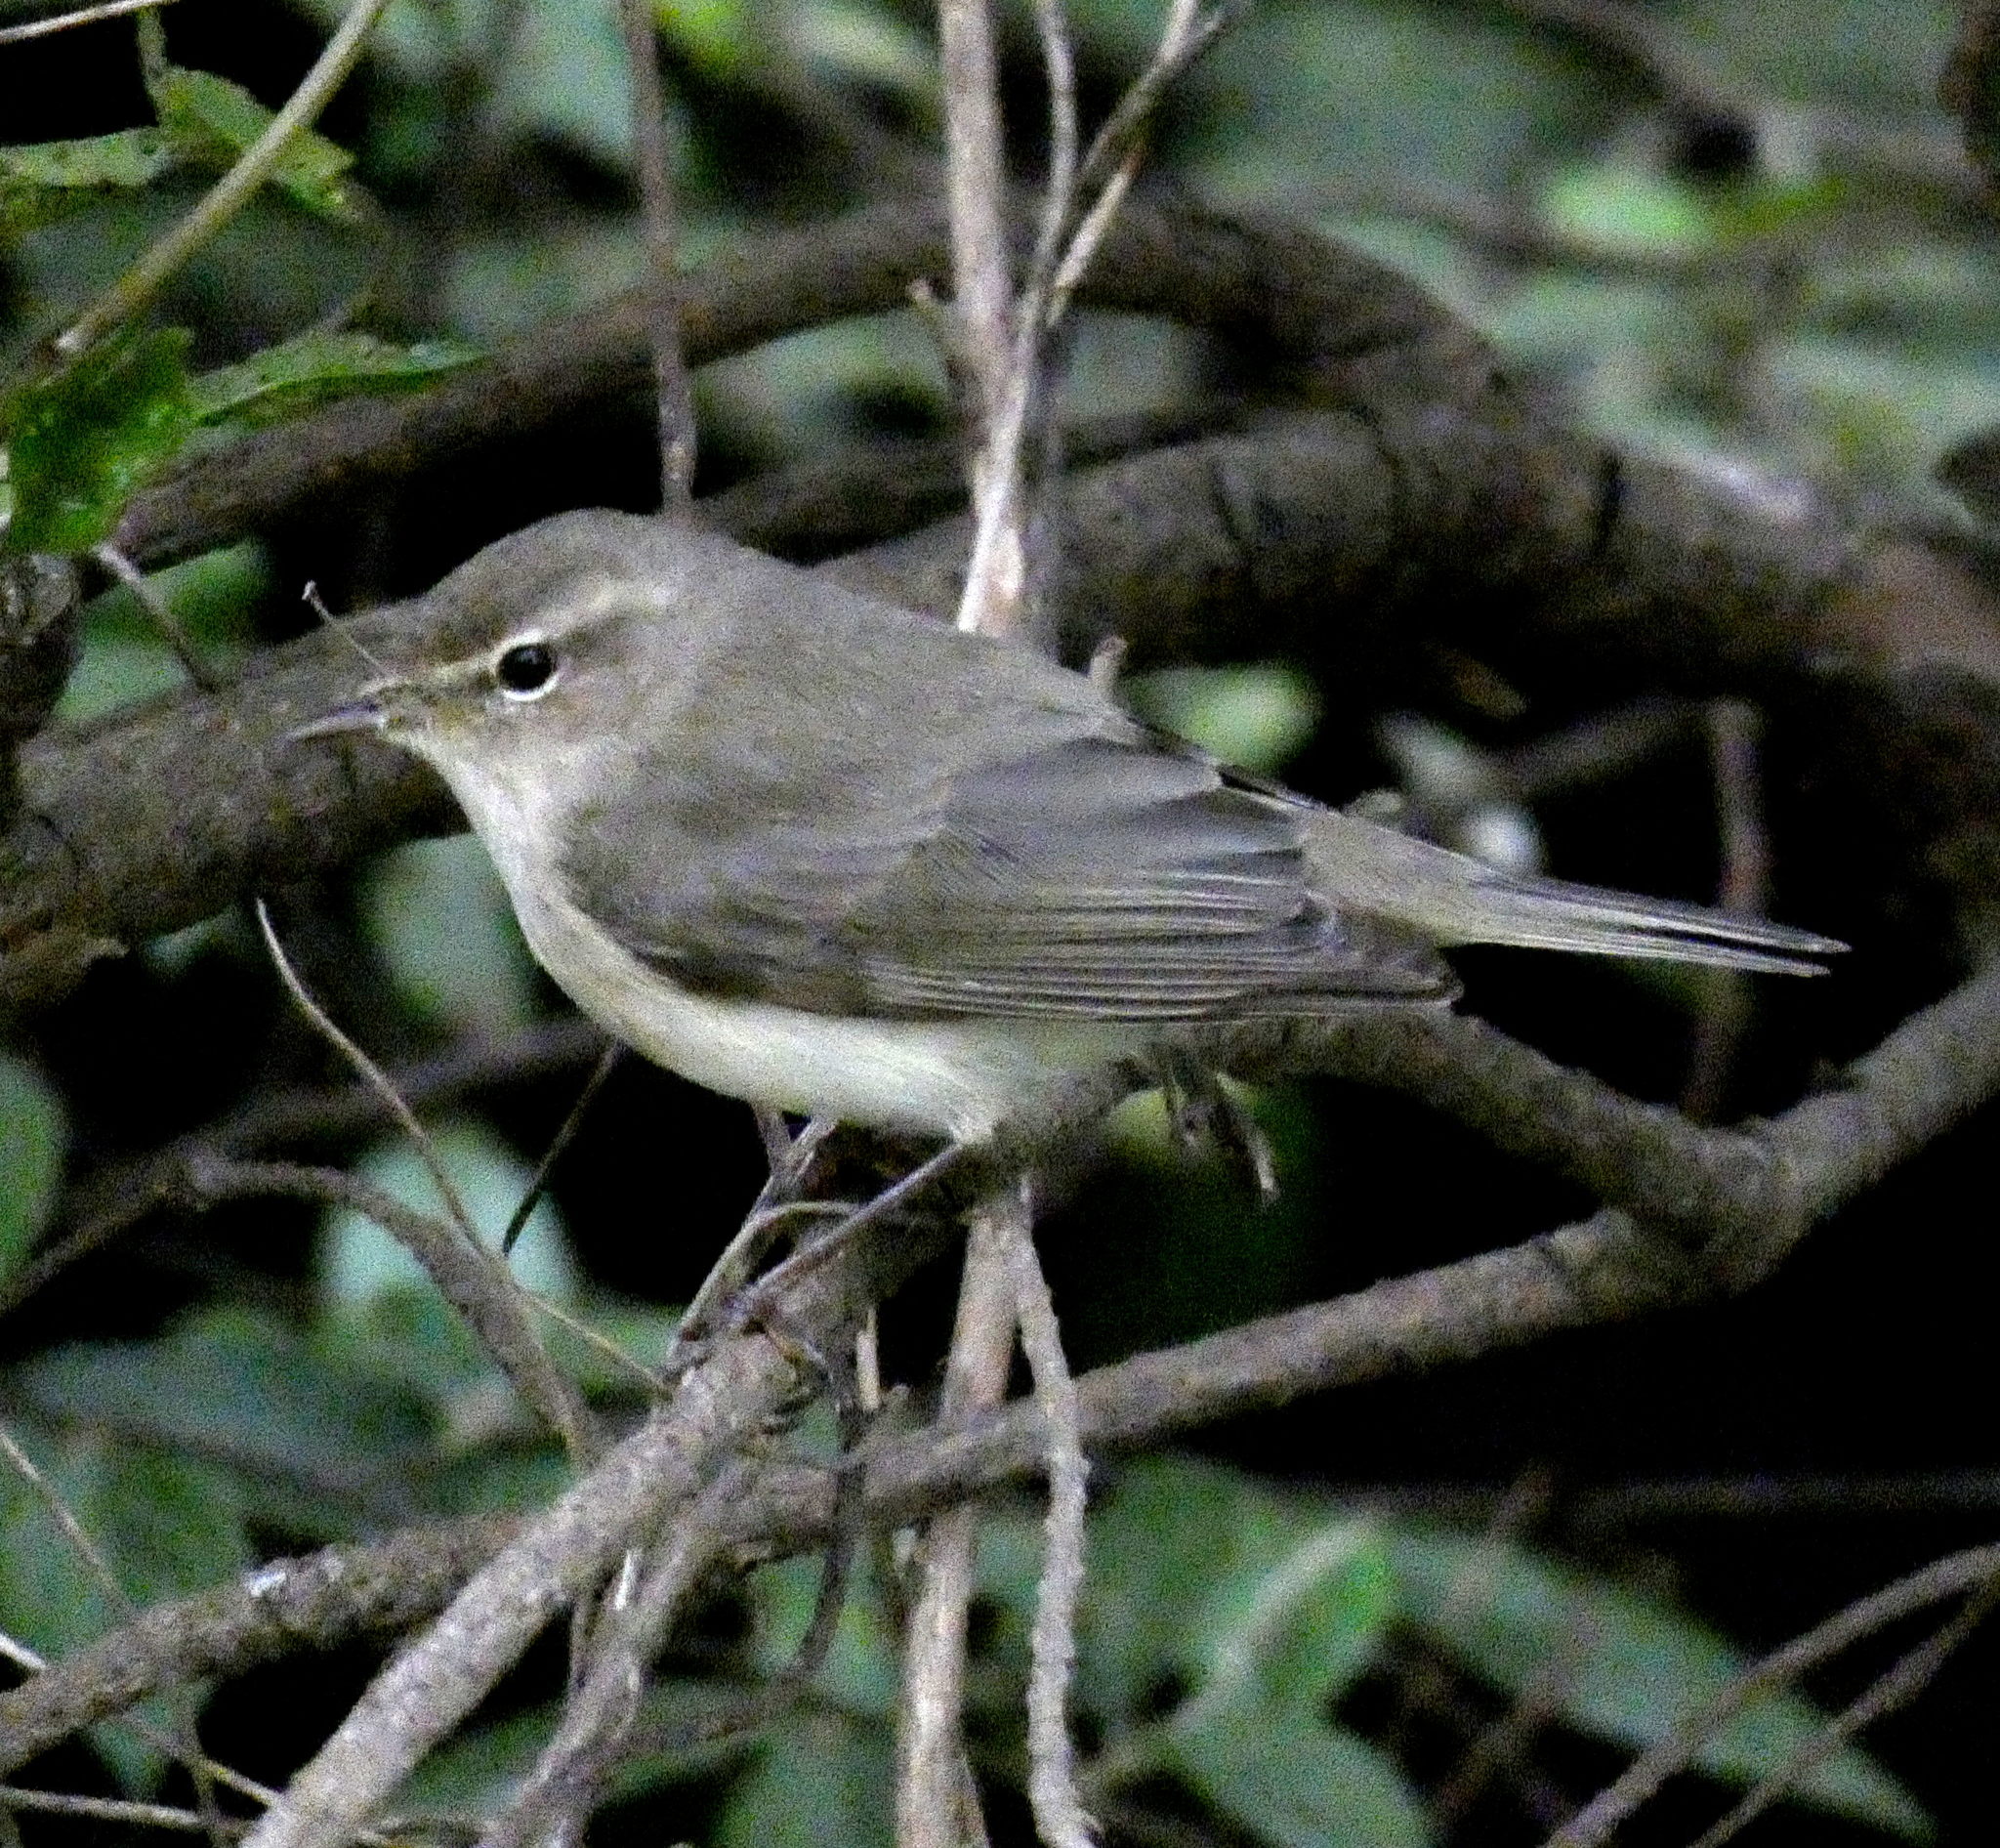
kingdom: Animalia
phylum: Chordata
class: Aves
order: Passeriformes
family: Phylloscopidae
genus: Phylloscopus
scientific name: Phylloscopus collybita
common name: Common chiffchaff
